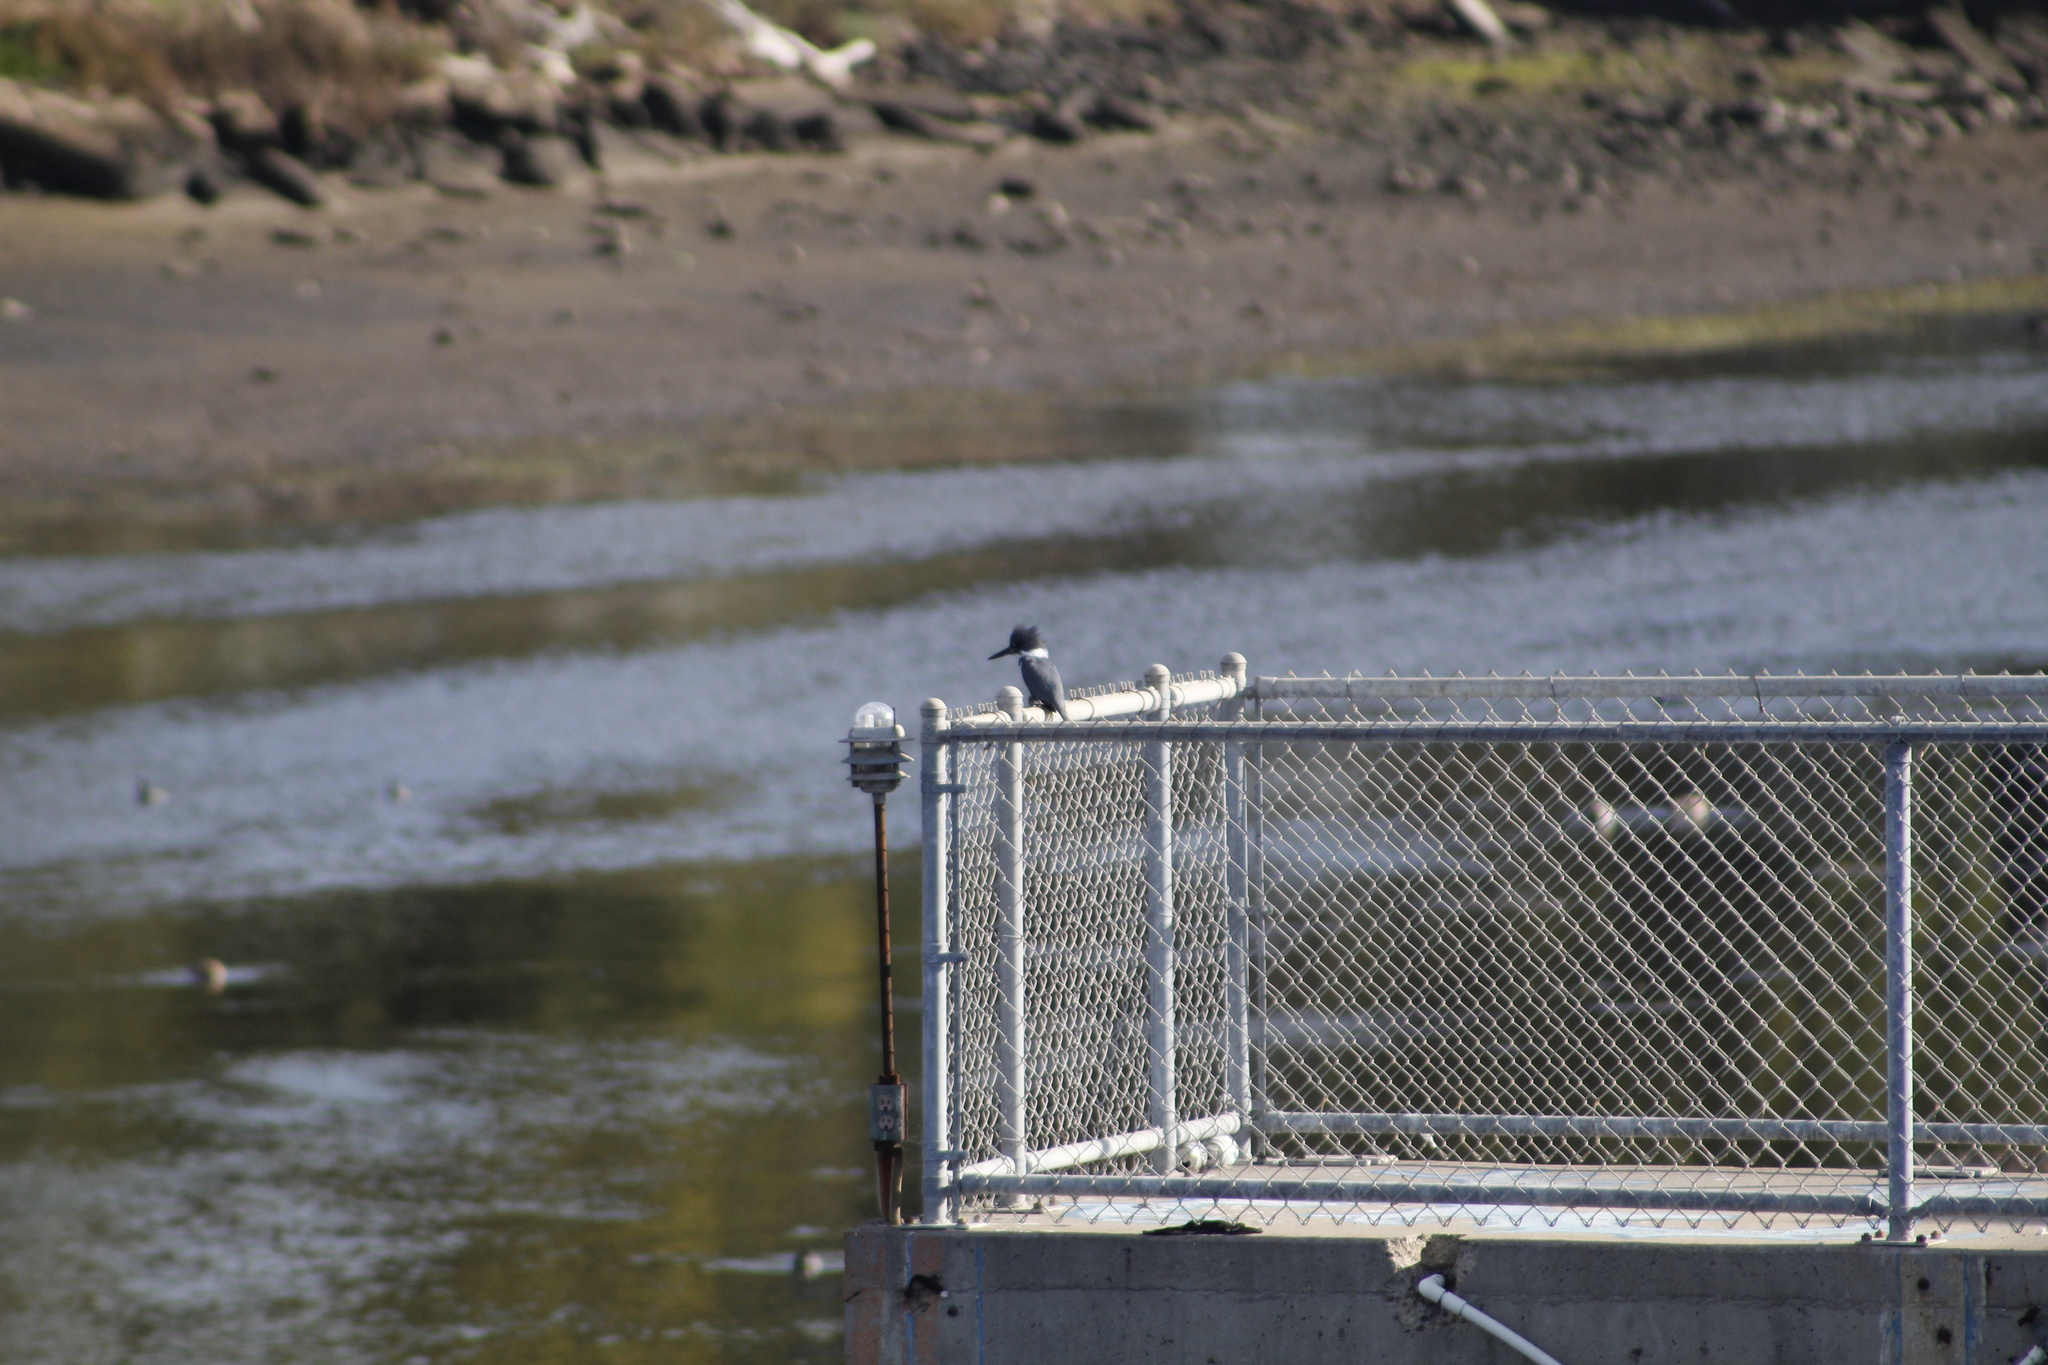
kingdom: Animalia
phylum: Chordata
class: Aves
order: Coraciiformes
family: Alcedinidae
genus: Megaceryle
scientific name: Megaceryle alcyon
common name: Belted kingfisher
